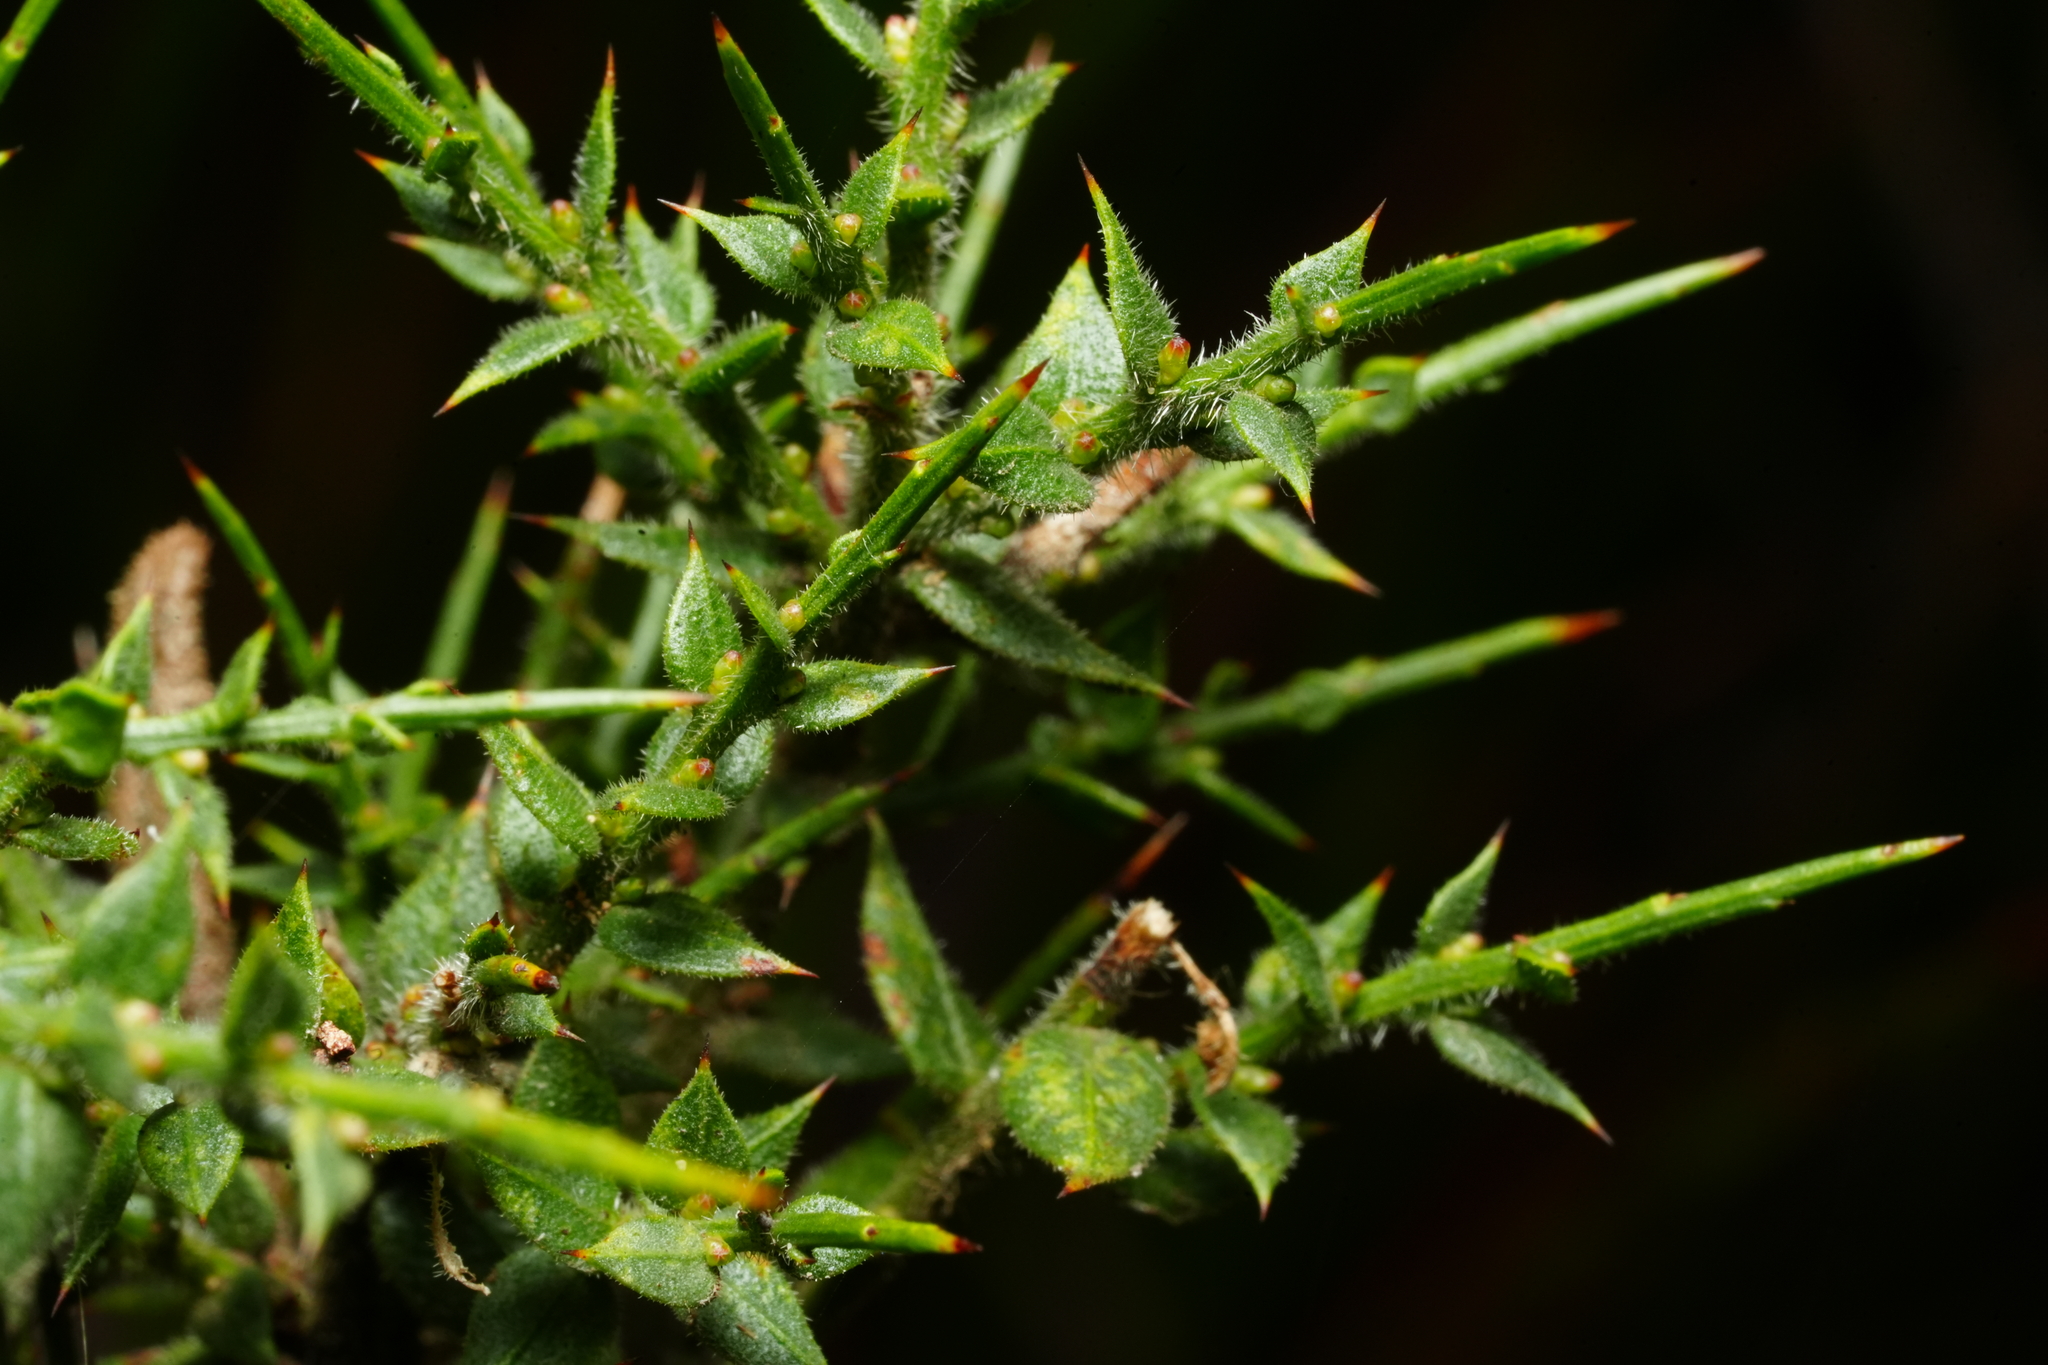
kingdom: Plantae
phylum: Tracheophyta
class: Magnoliopsida
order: Fabales
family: Fabaceae
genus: Daviesia
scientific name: Daviesia ulicifolia
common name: Gorse bitter-pea
